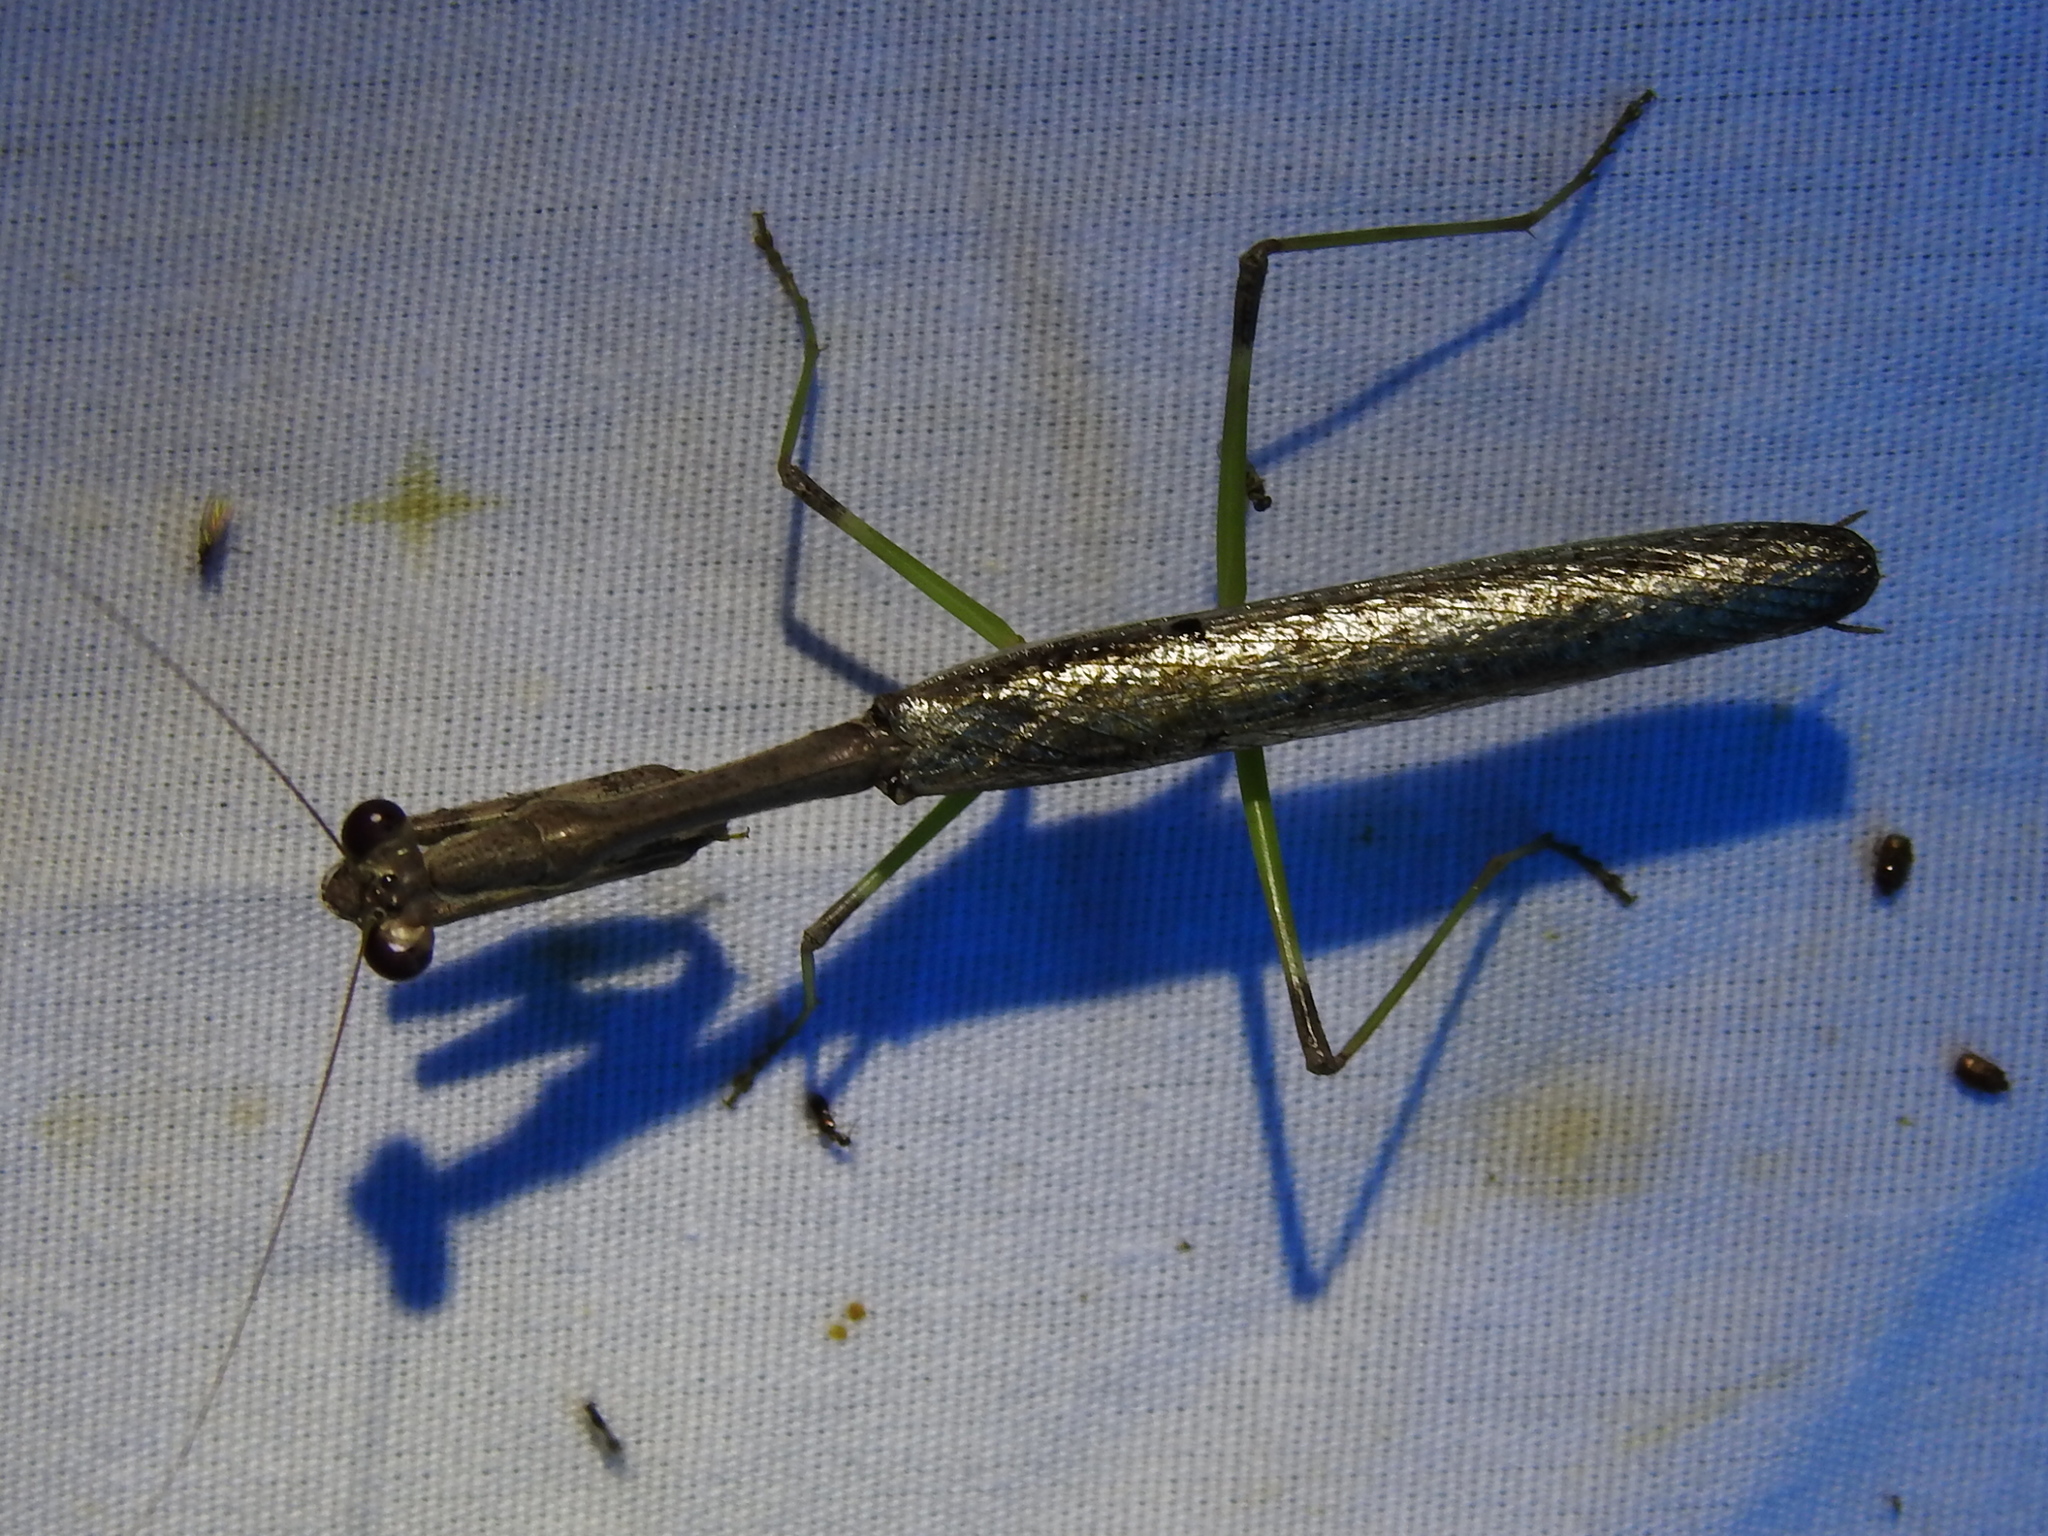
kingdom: Animalia
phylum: Arthropoda
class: Insecta
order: Mantodea
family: Mantidae
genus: Stagmomantis
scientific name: Stagmomantis carolina
